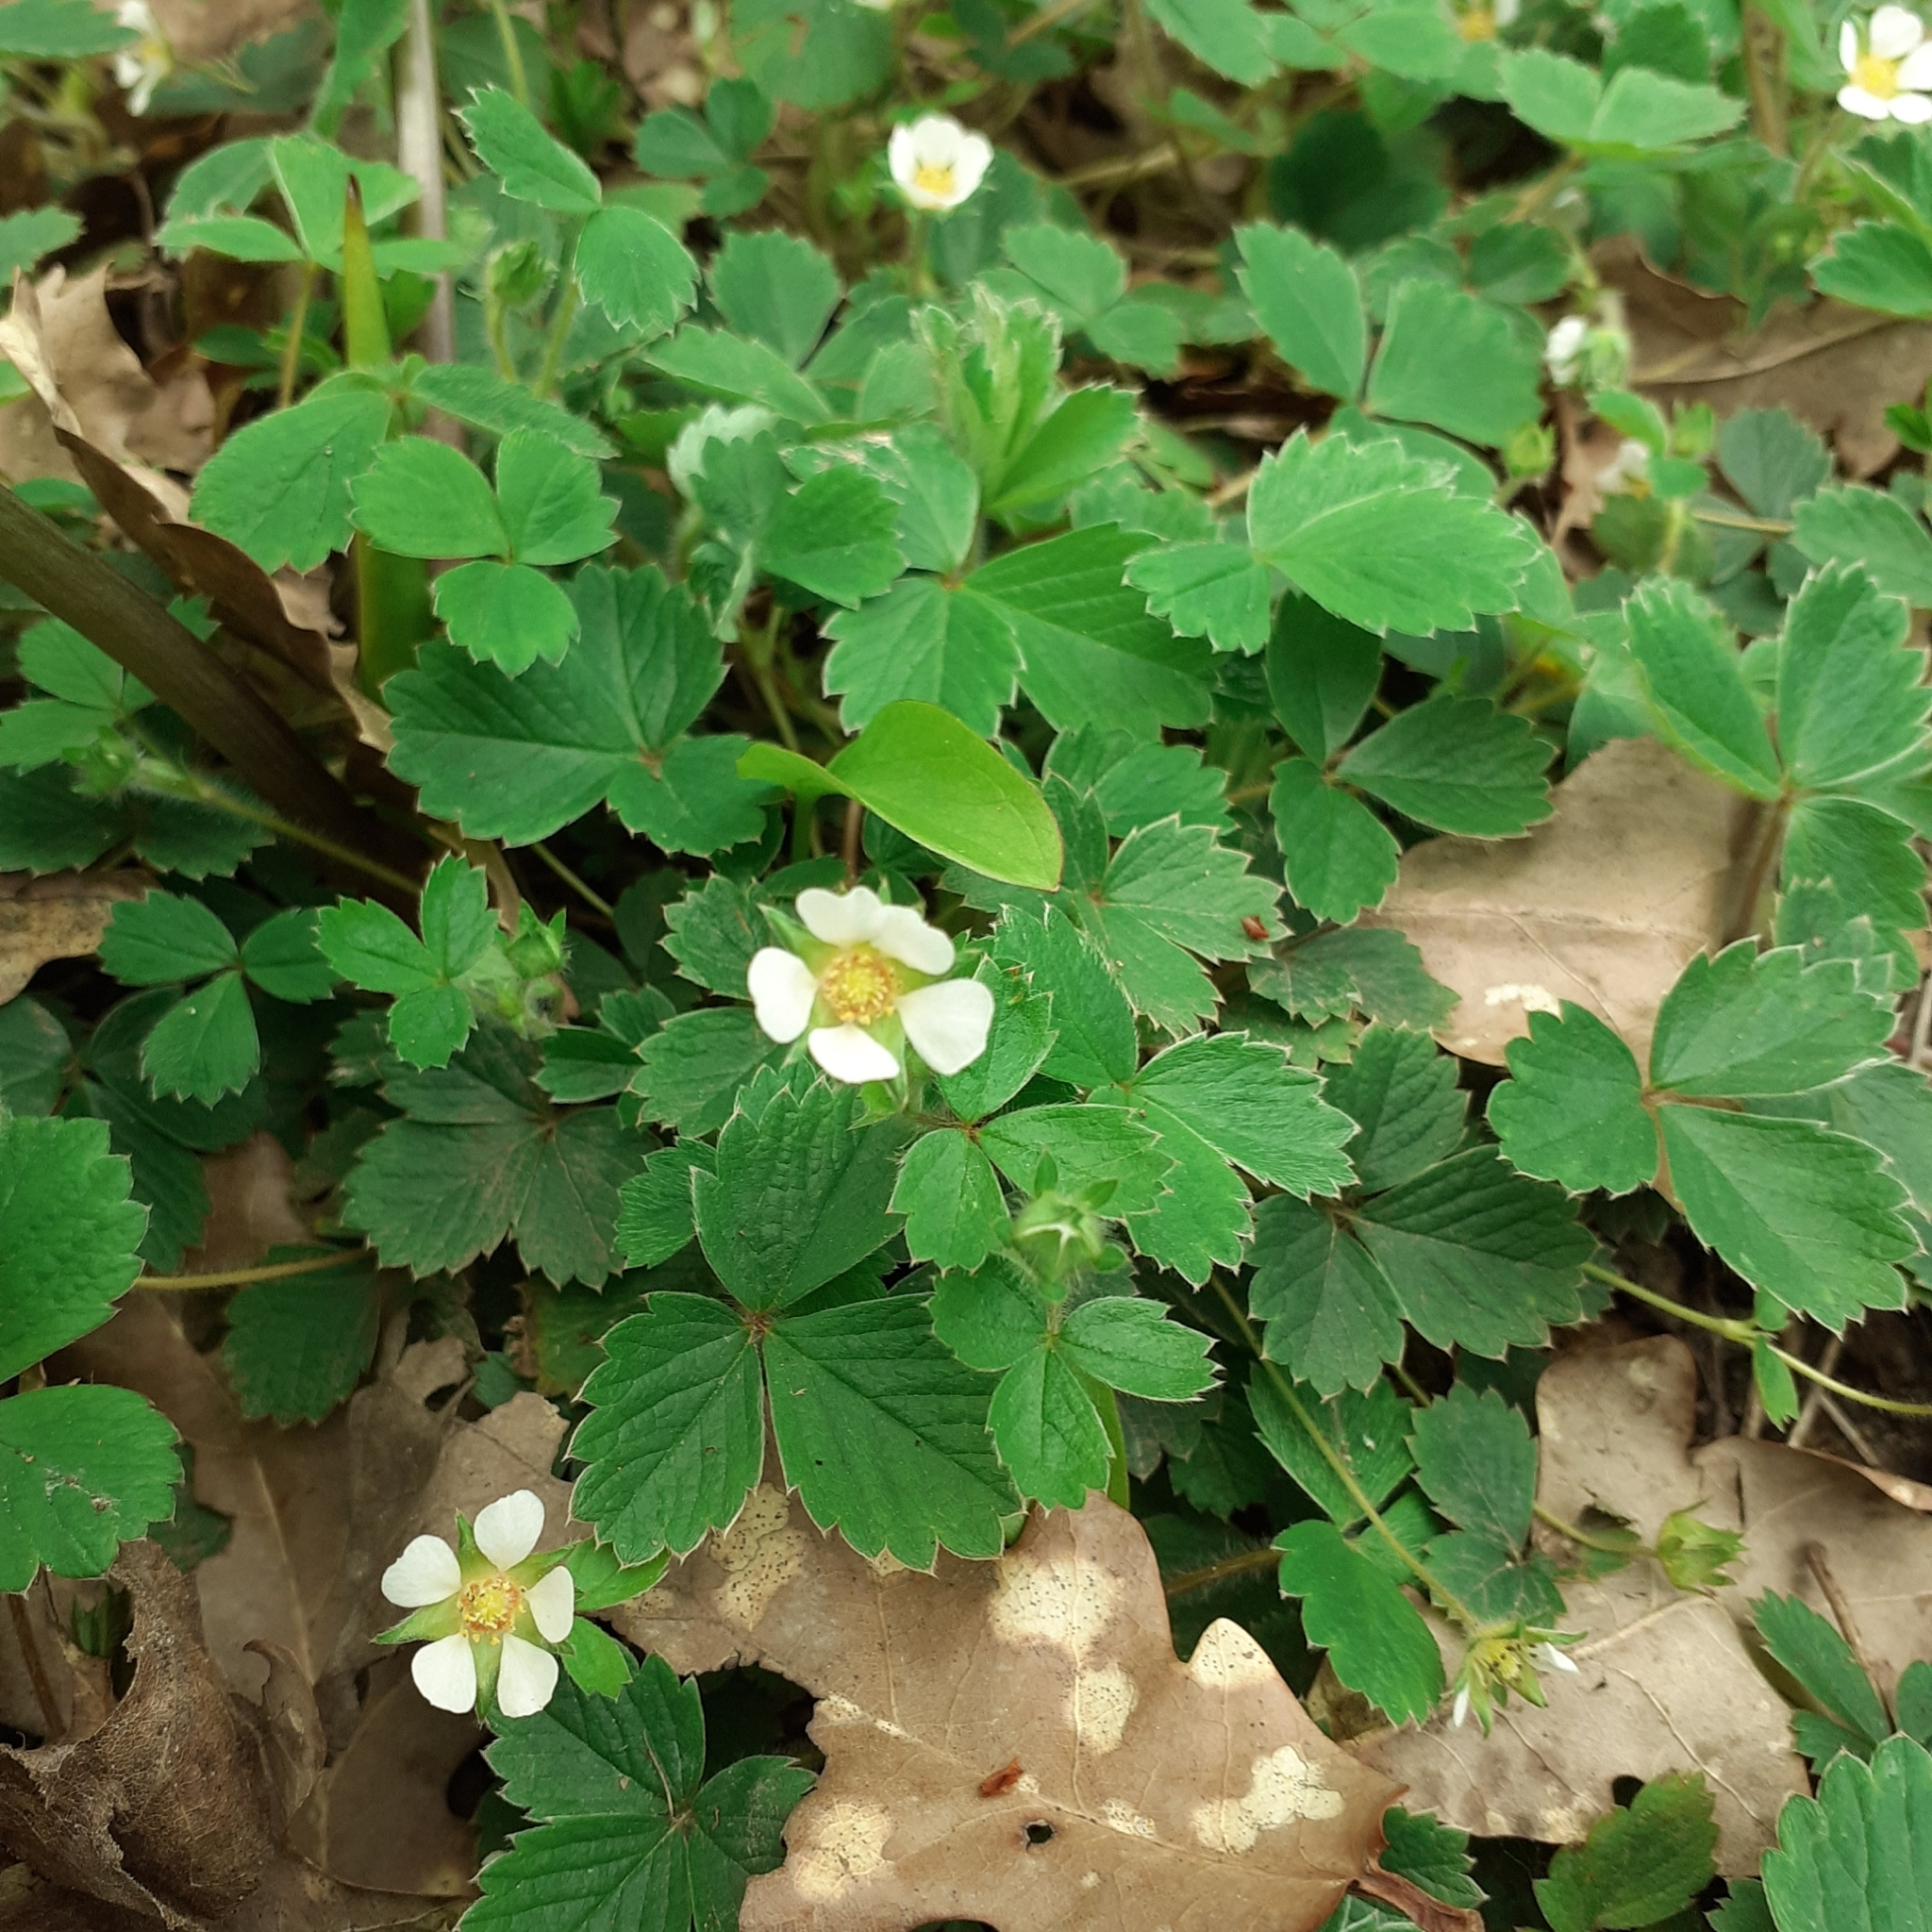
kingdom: Plantae
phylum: Tracheophyta
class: Magnoliopsida
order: Rosales
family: Rosaceae
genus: Potentilla
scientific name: Potentilla sterilis
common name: Barren strawberry
